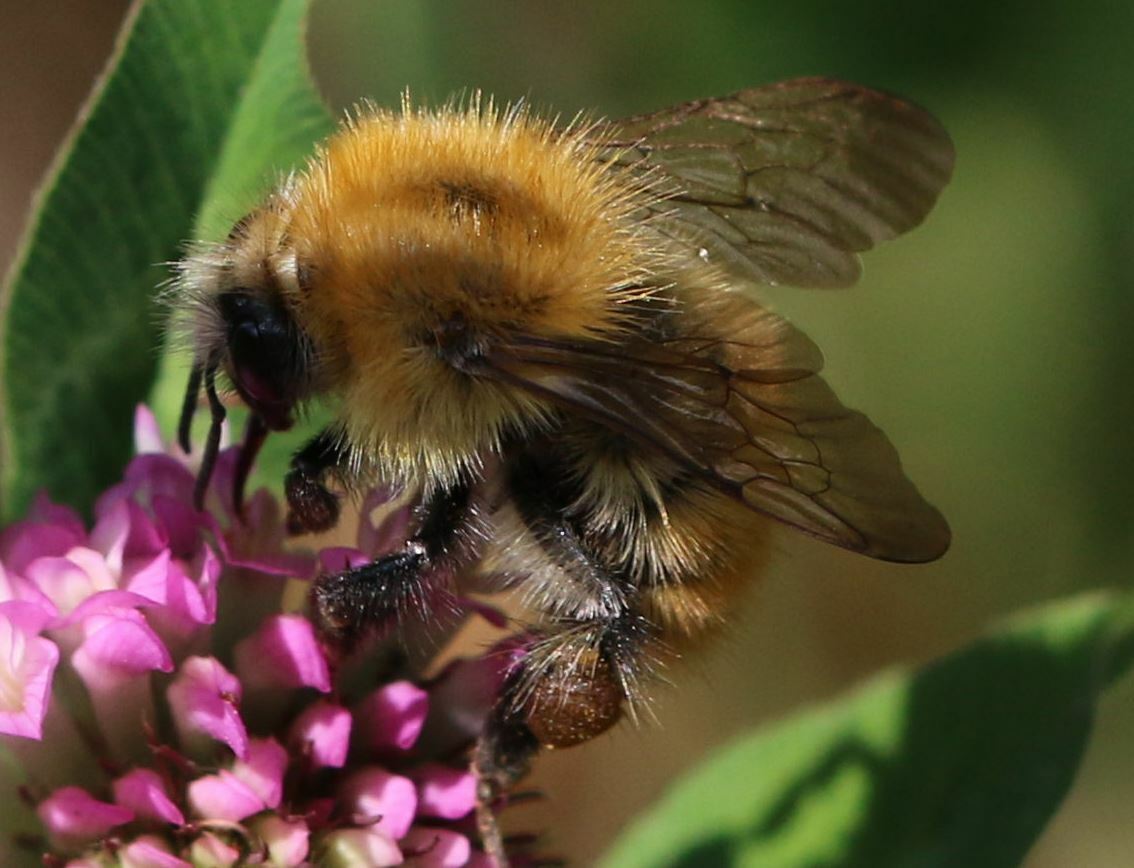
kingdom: Animalia
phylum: Arthropoda
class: Insecta
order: Hymenoptera
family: Apidae
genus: Bombus
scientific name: Bombus pascuorum
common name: Common carder bee
